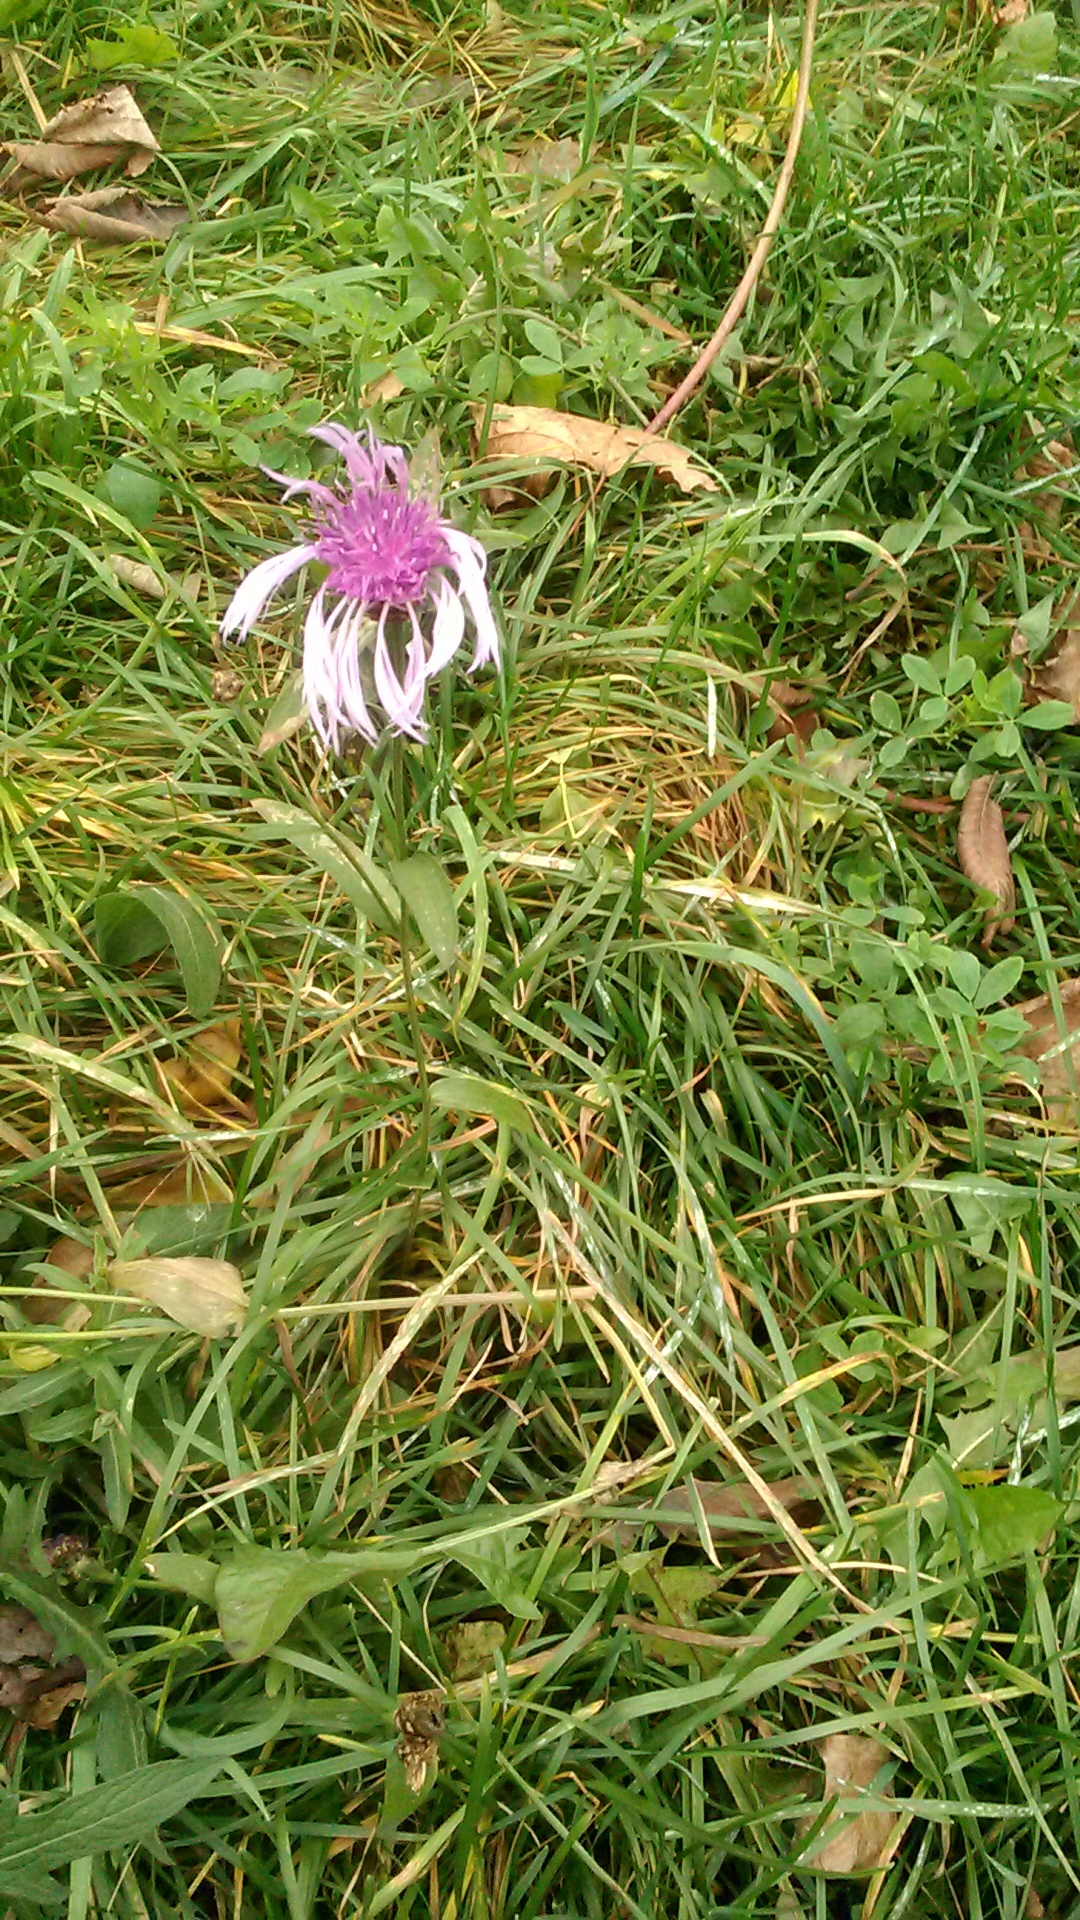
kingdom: Plantae
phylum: Tracheophyta
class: Magnoliopsida
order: Asterales
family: Asteraceae
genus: Centaurea
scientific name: Centaurea jacea
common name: Brown knapweed
